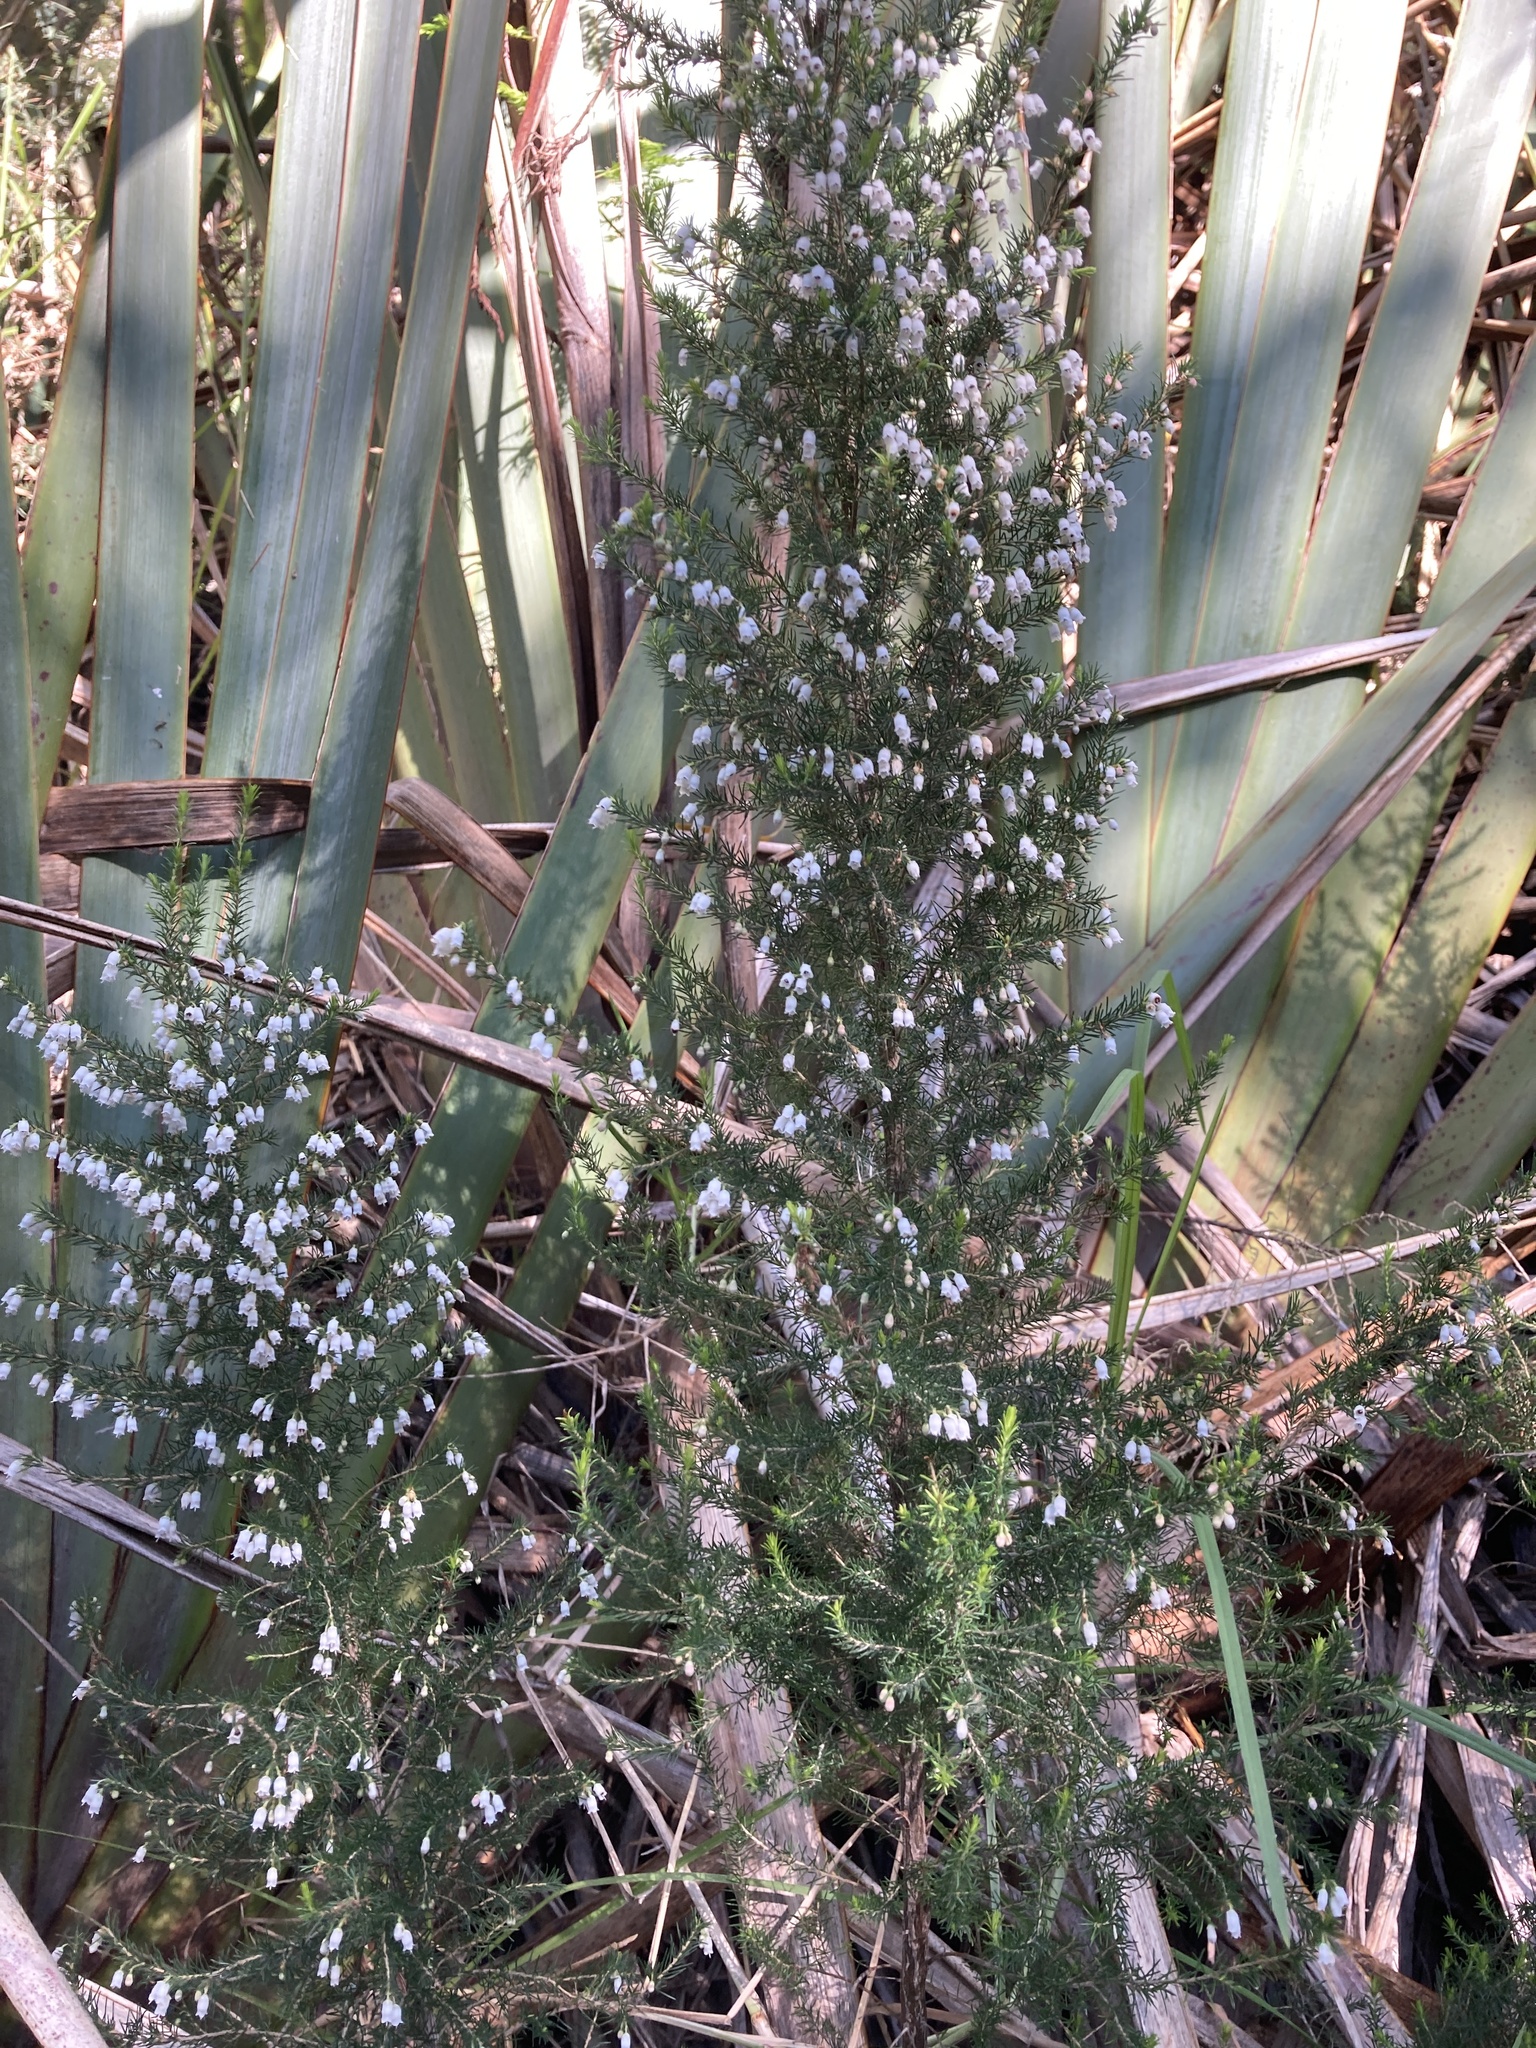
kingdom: Plantae
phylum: Tracheophyta
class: Magnoliopsida
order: Ericales
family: Ericaceae
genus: Erica
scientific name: Erica lusitanica
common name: Spanish heath
